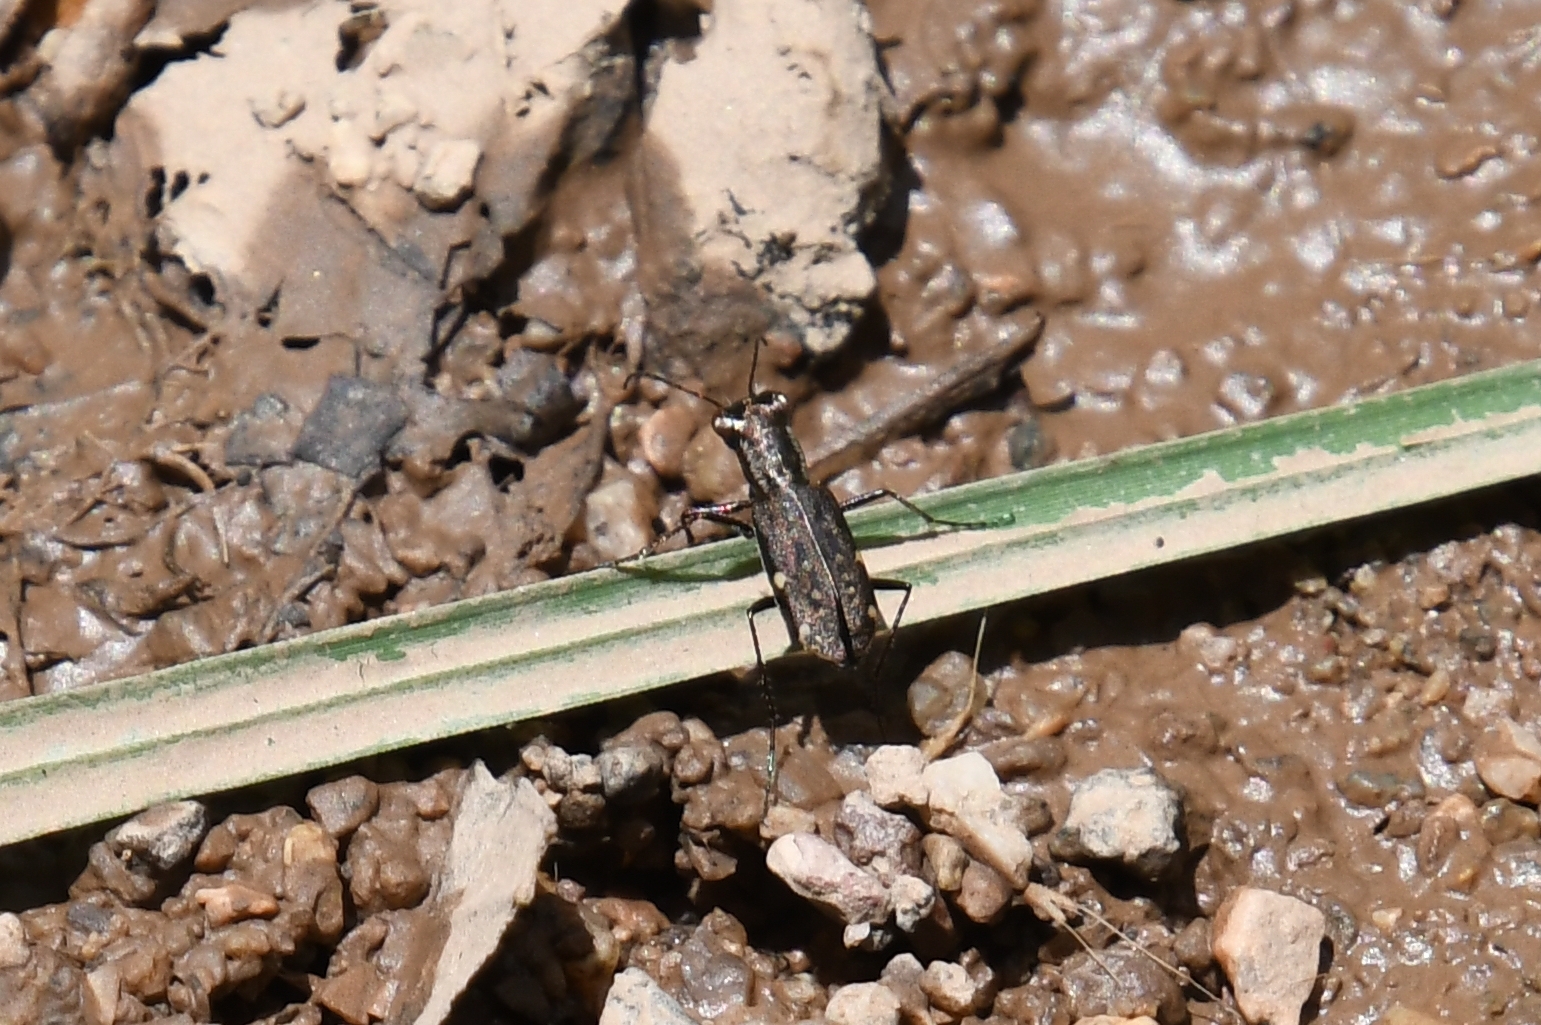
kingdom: Animalia
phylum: Arthropoda
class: Insecta
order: Coleoptera
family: Carabidae
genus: Brasiella
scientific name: Brasiella viridisticta
